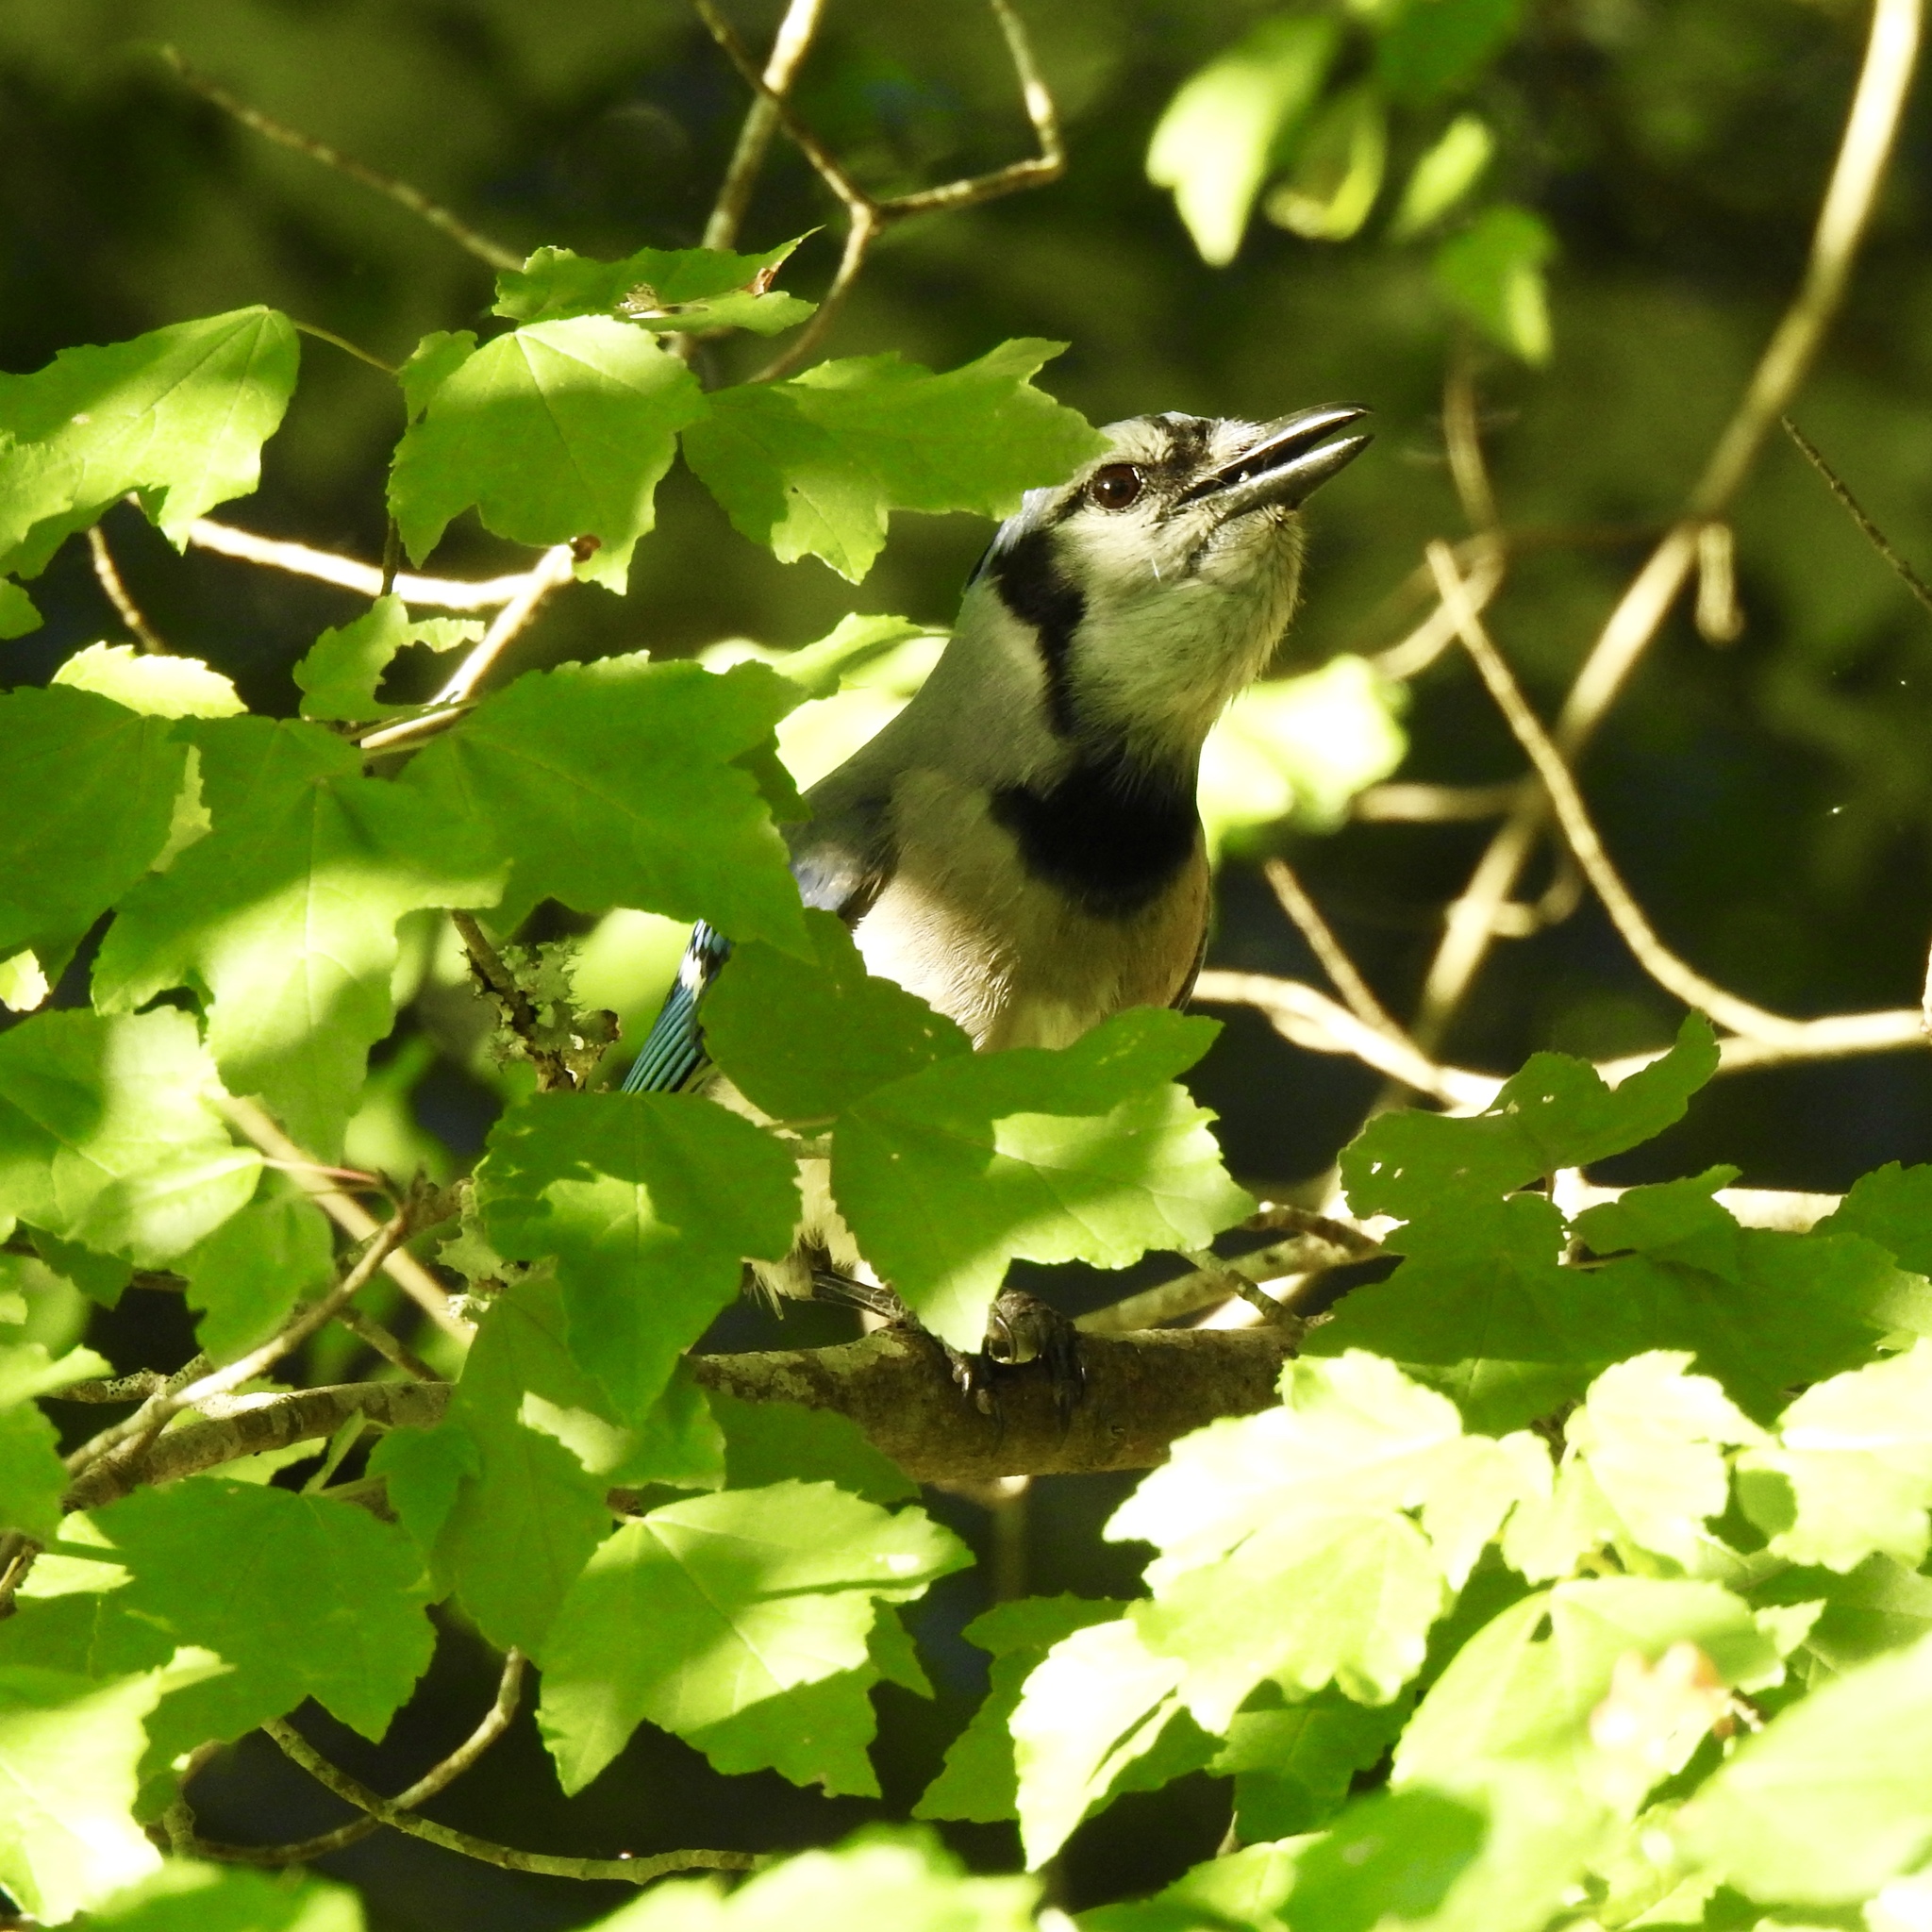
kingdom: Animalia
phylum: Chordata
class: Aves
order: Passeriformes
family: Corvidae
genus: Cyanocitta
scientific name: Cyanocitta cristata
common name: Blue jay
